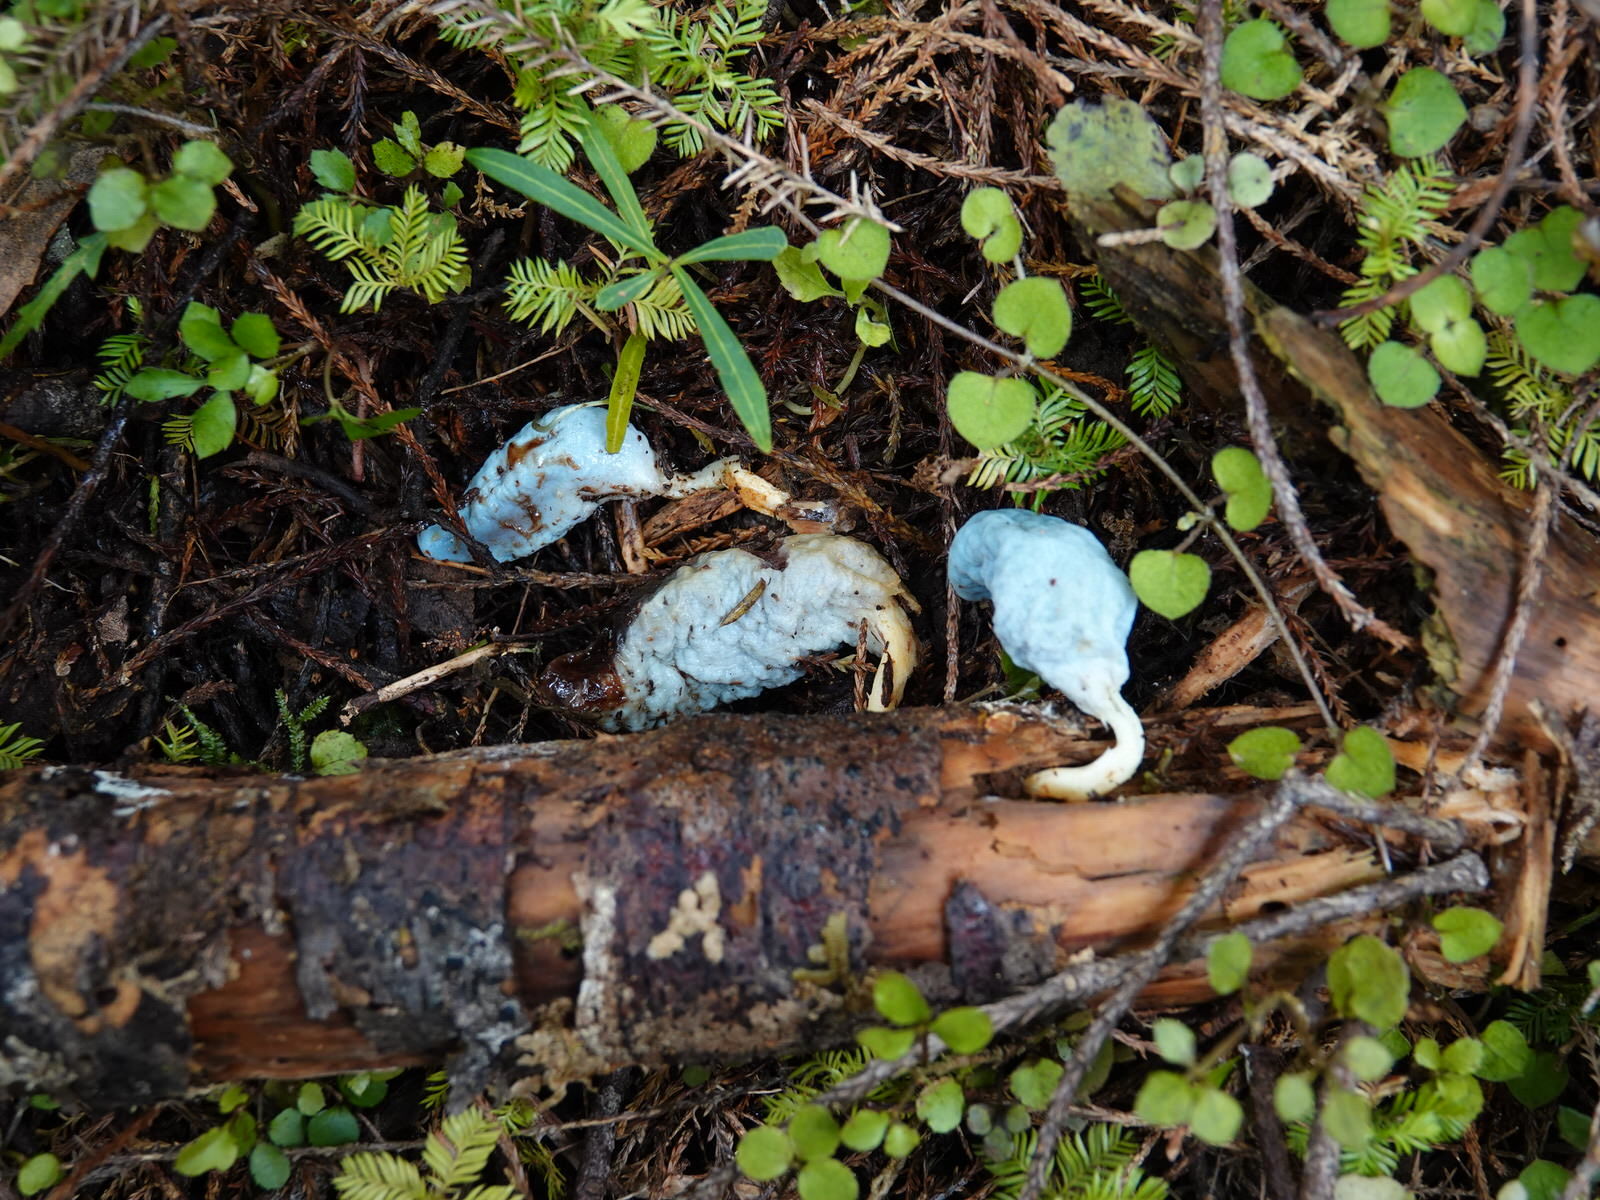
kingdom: Fungi
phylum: Basidiomycota
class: Agaricomycetes
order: Agaricales
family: Agaricaceae
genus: Clavogaster
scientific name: Clavogaster virescens
